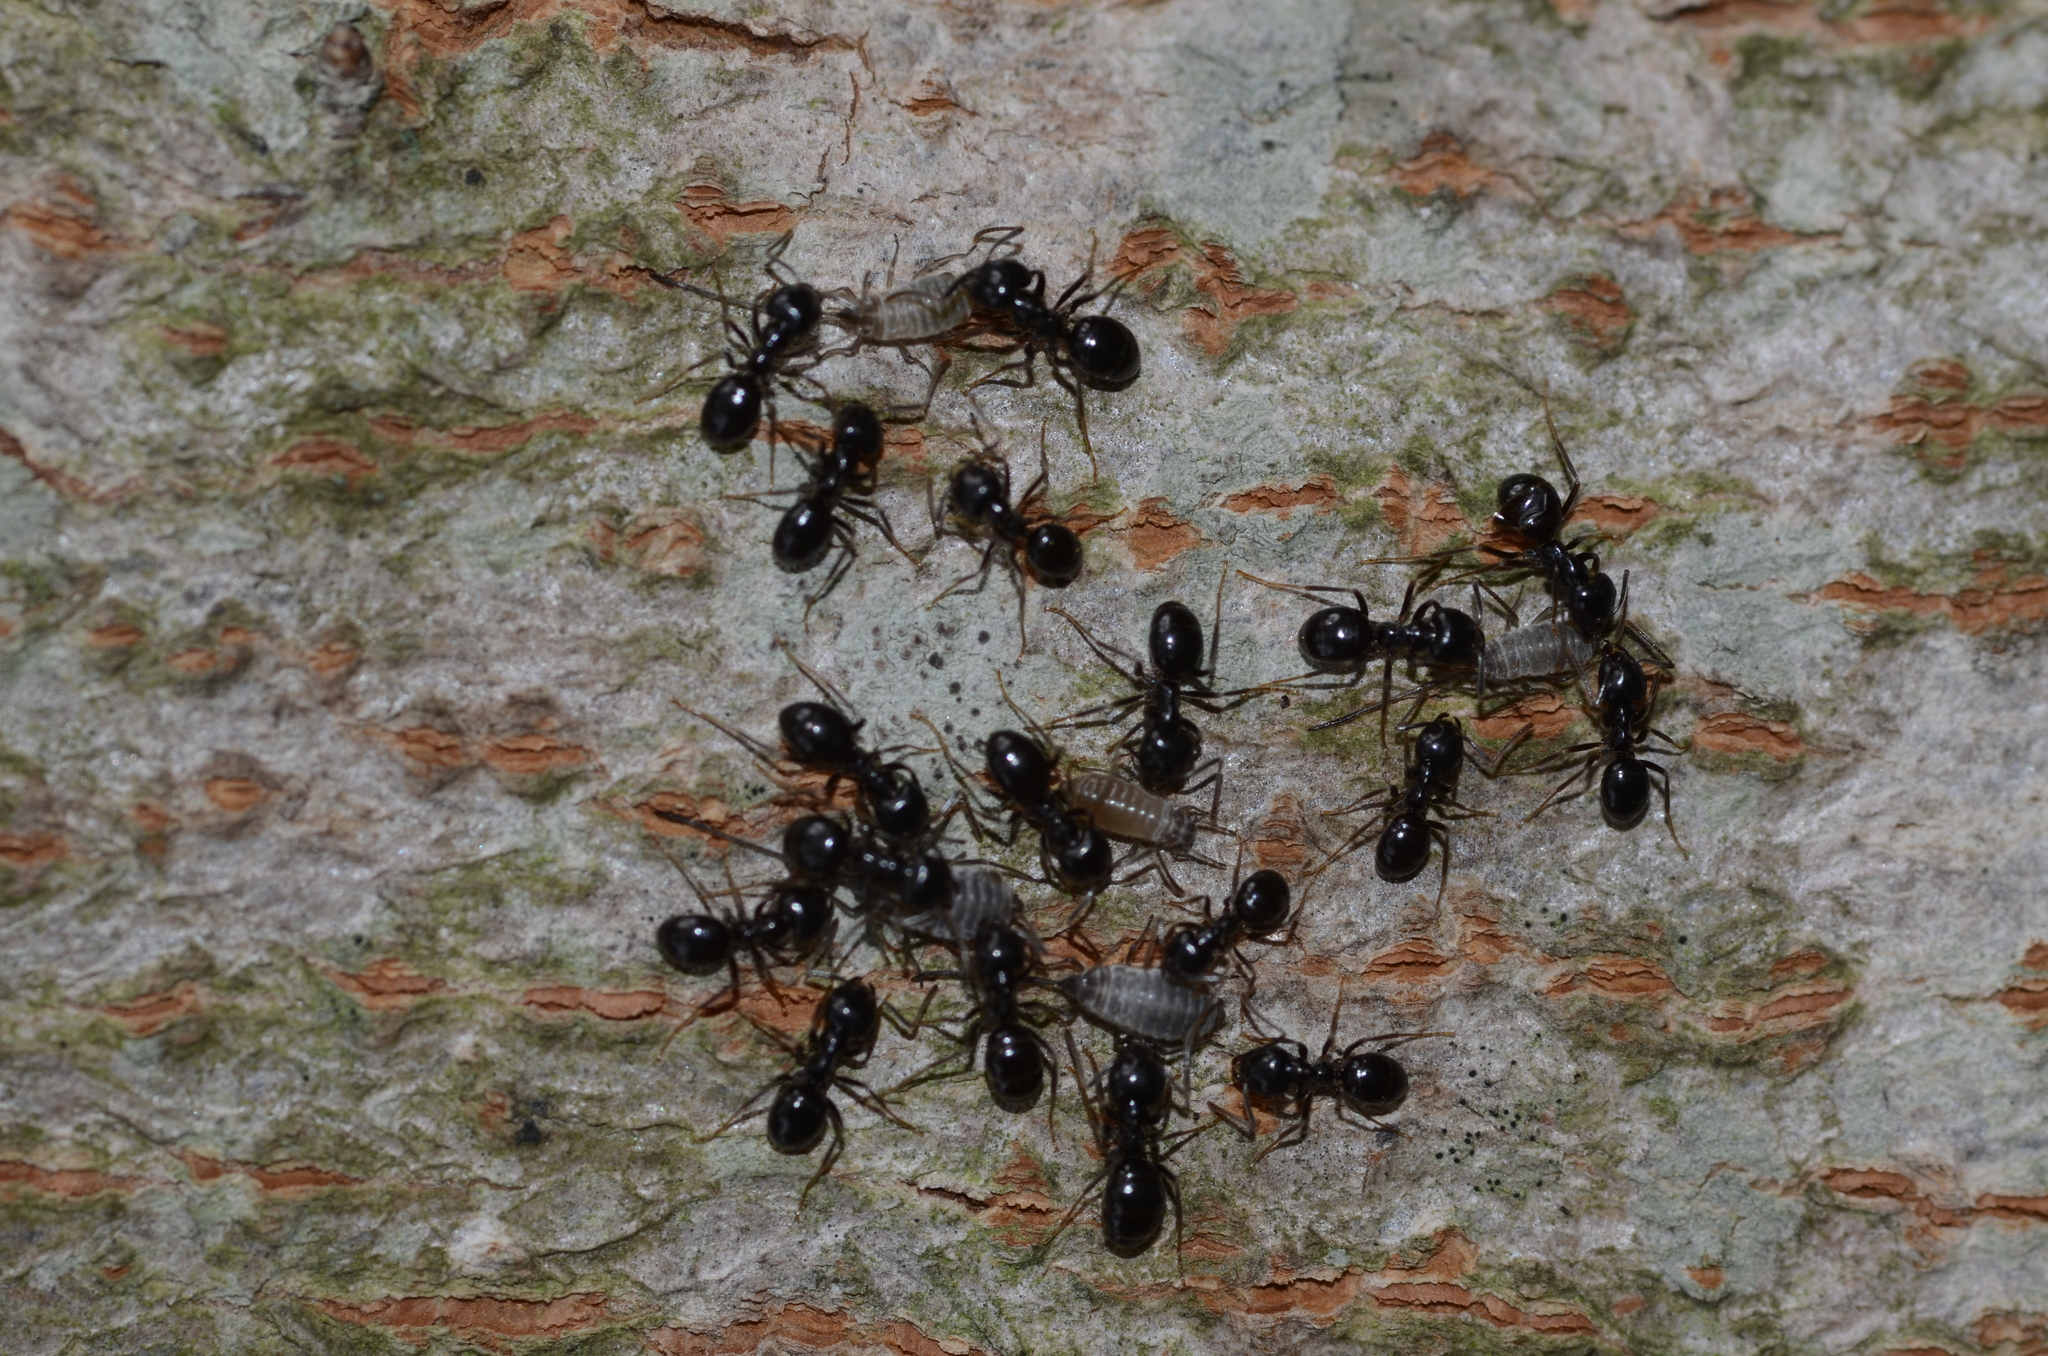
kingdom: Animalia
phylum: Arthropoda
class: Insecta
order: Hymenoptera
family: Formicidae
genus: Lasius
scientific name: Lasius fuliginosus
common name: Jet ant
